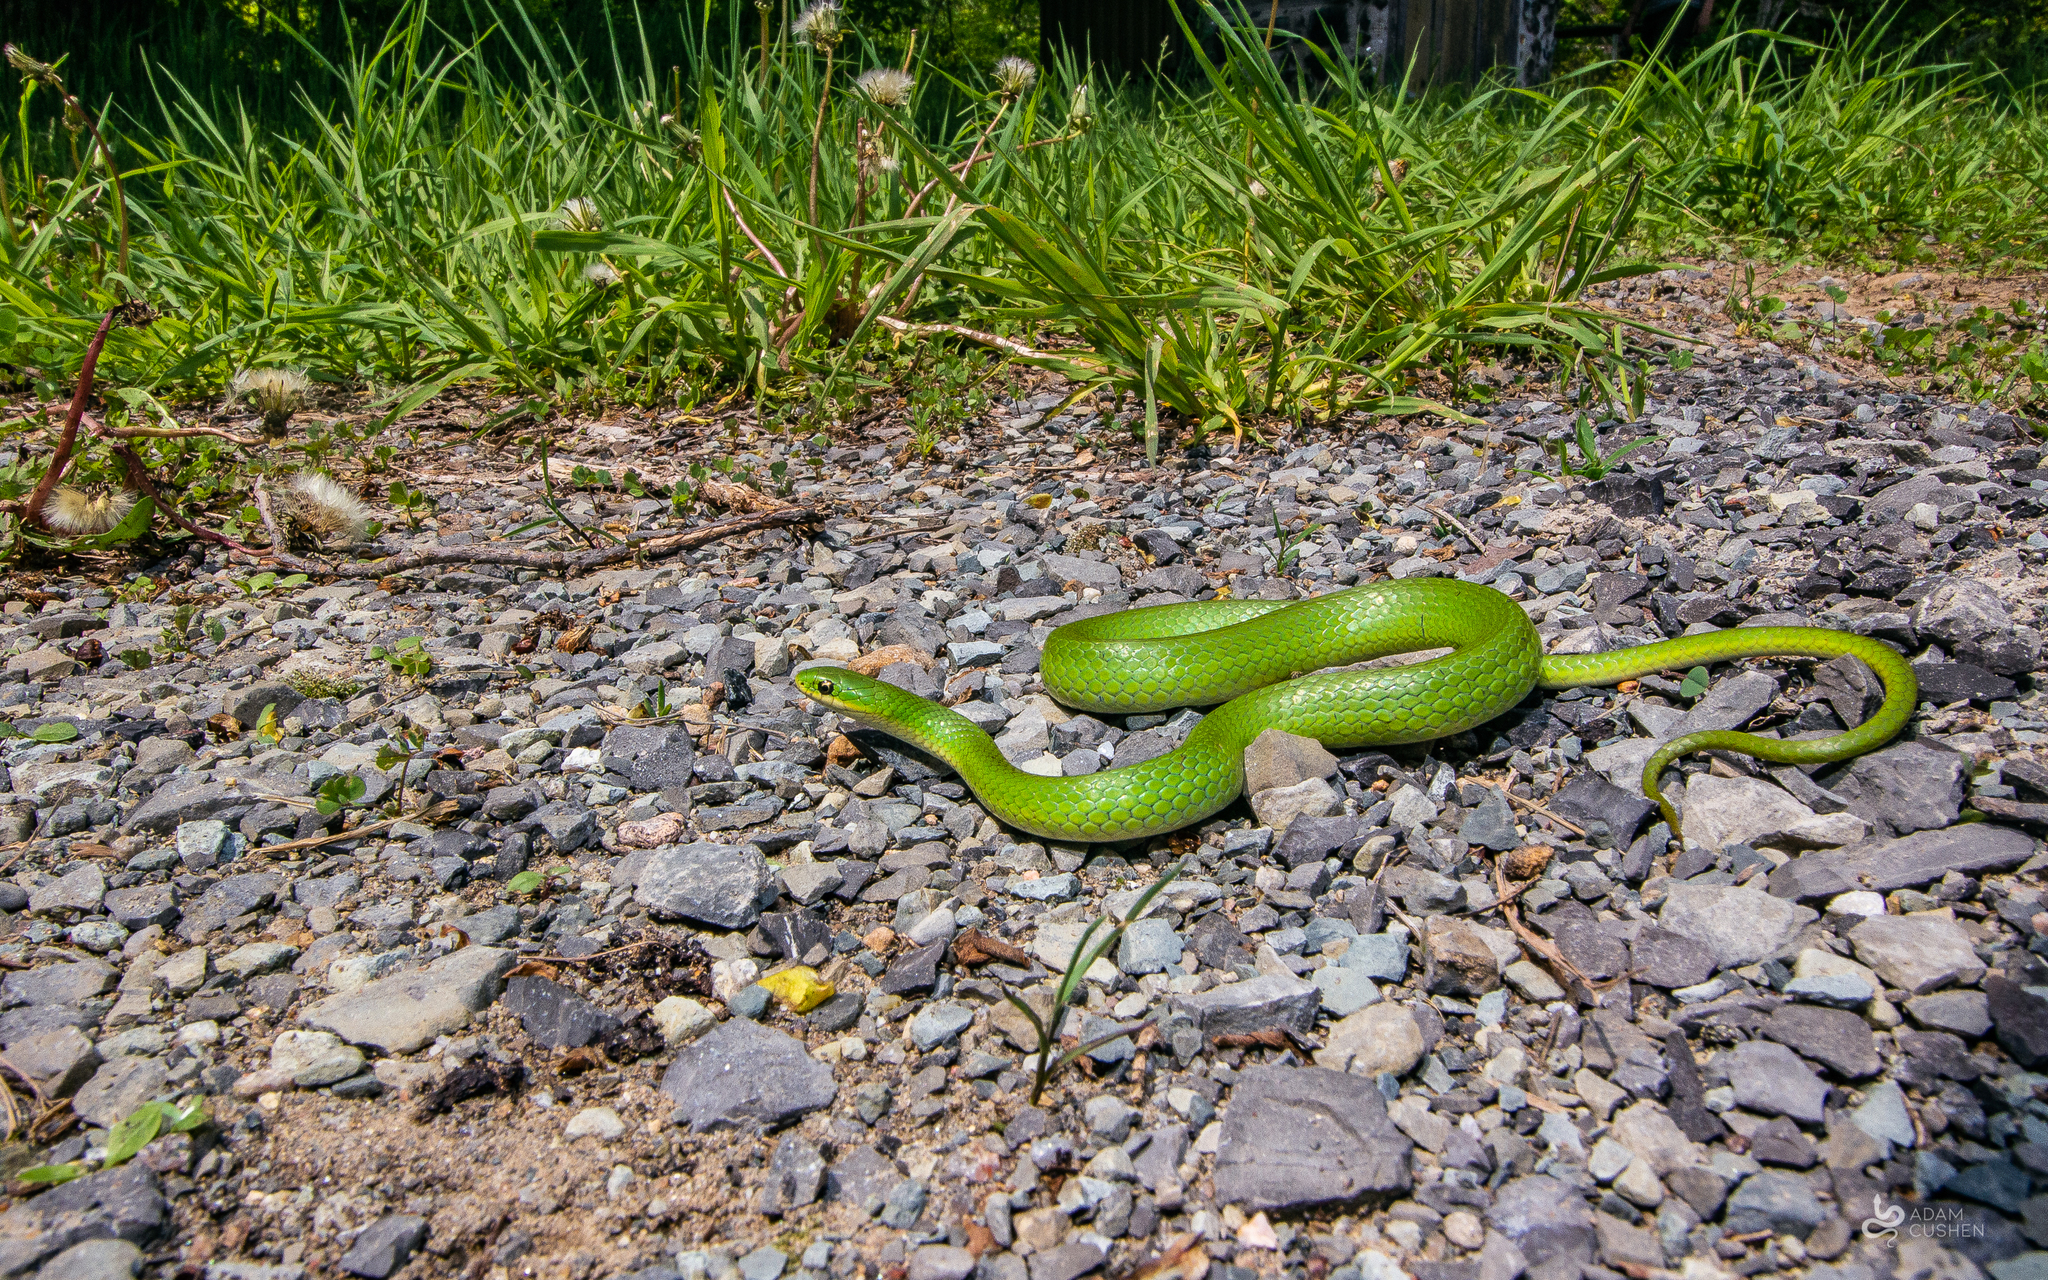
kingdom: Animalia
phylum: Chordata
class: Squamata
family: Colubridae
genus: Opheodrys
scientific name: Opheodrys vernalis
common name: Smooth green snake
